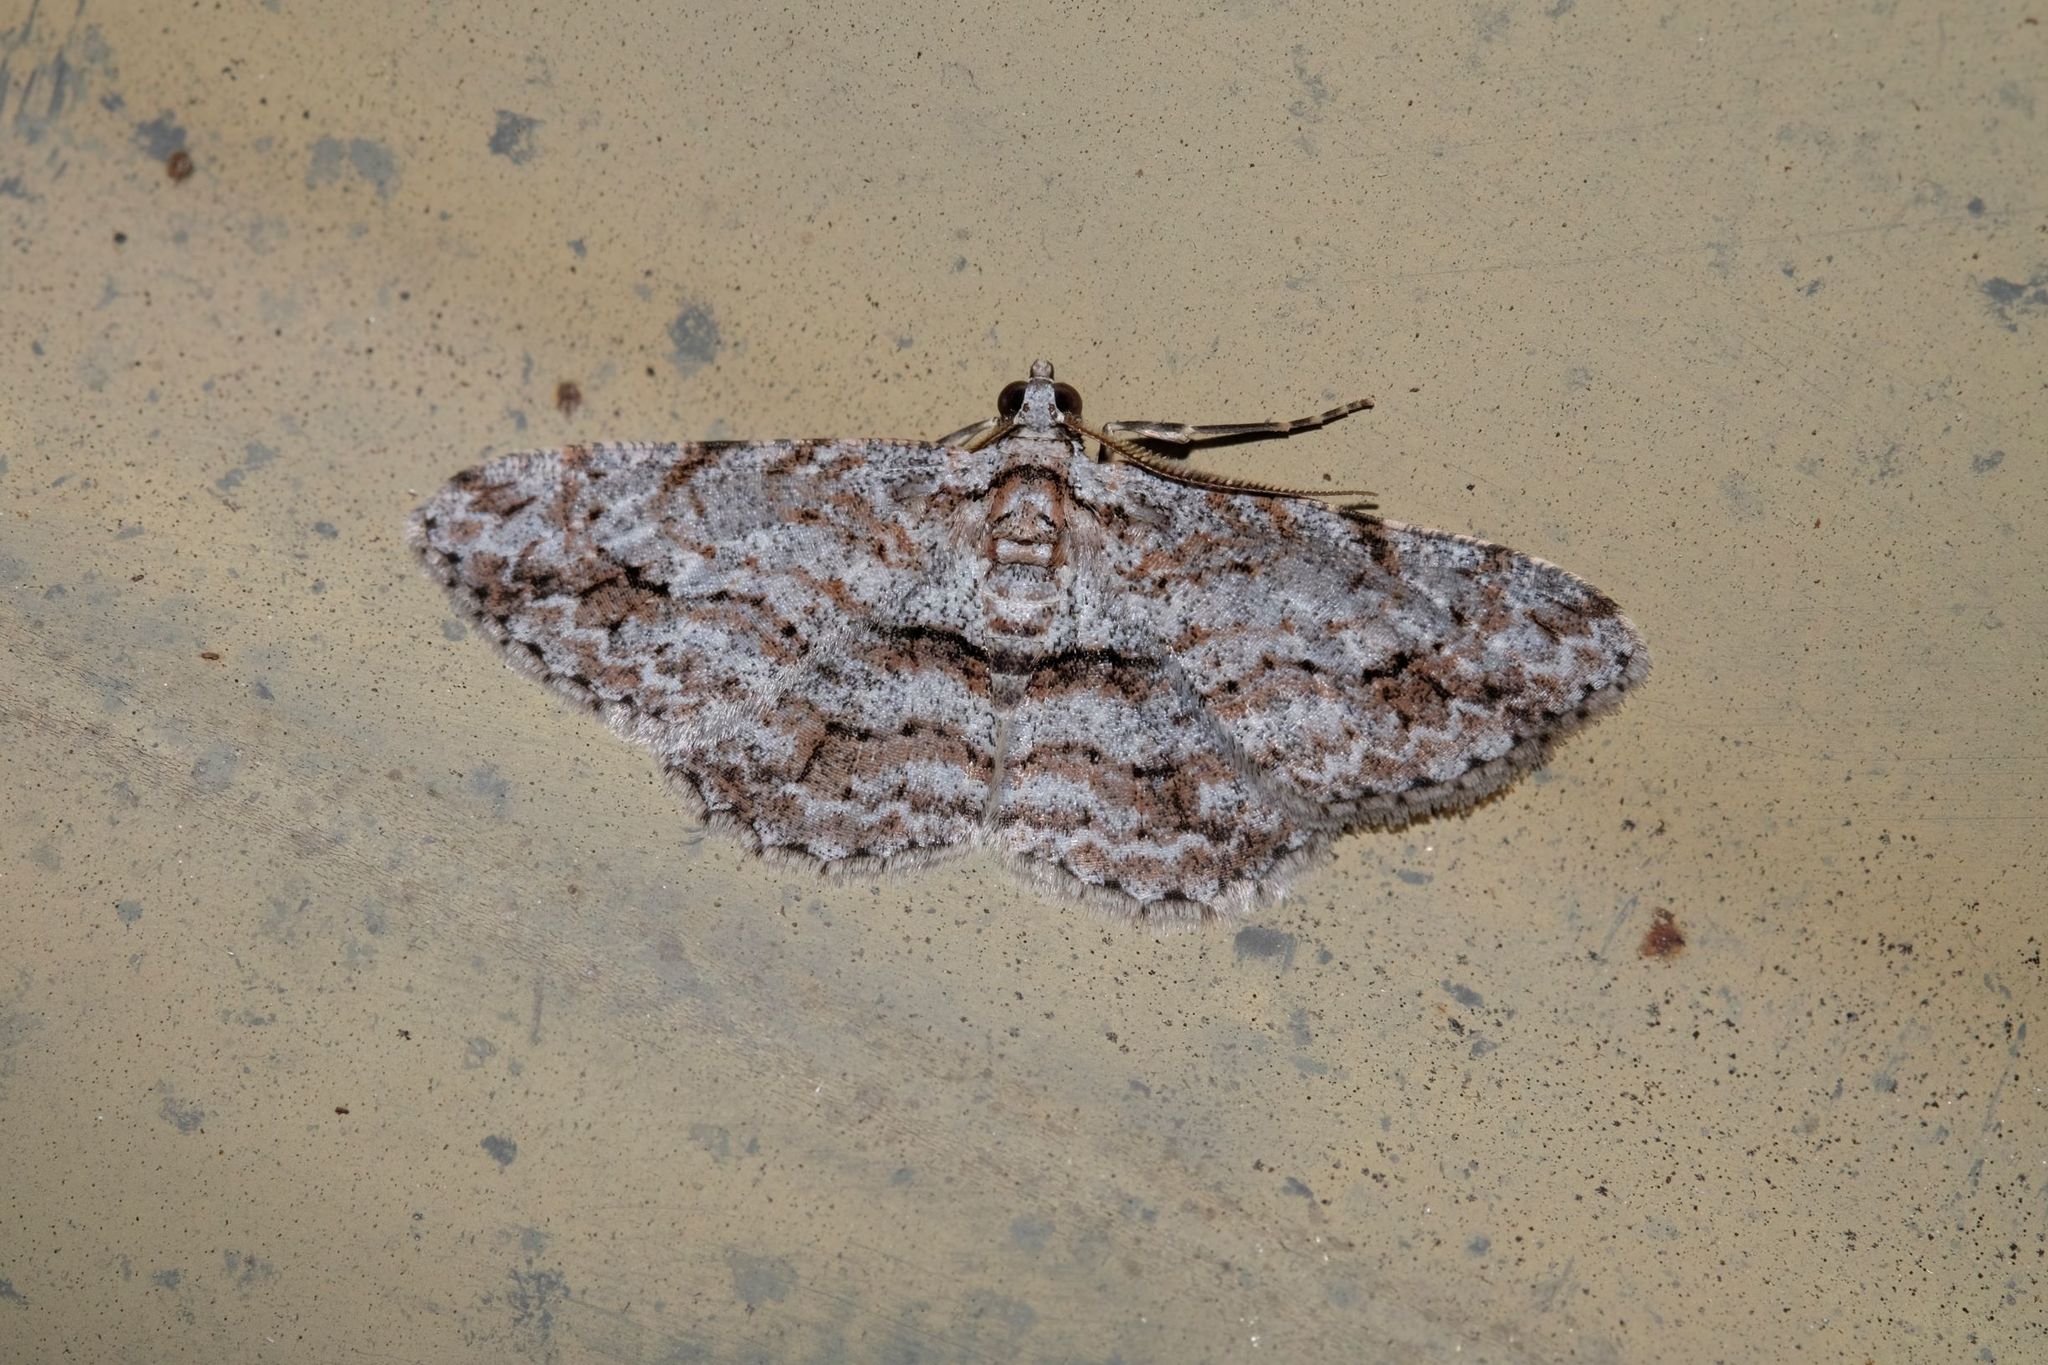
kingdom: Animalia
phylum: Arthropoda
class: Insecta
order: Lepidoptera
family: Geometridae
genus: Didymoctenia
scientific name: Didymoctenia exsuperata
